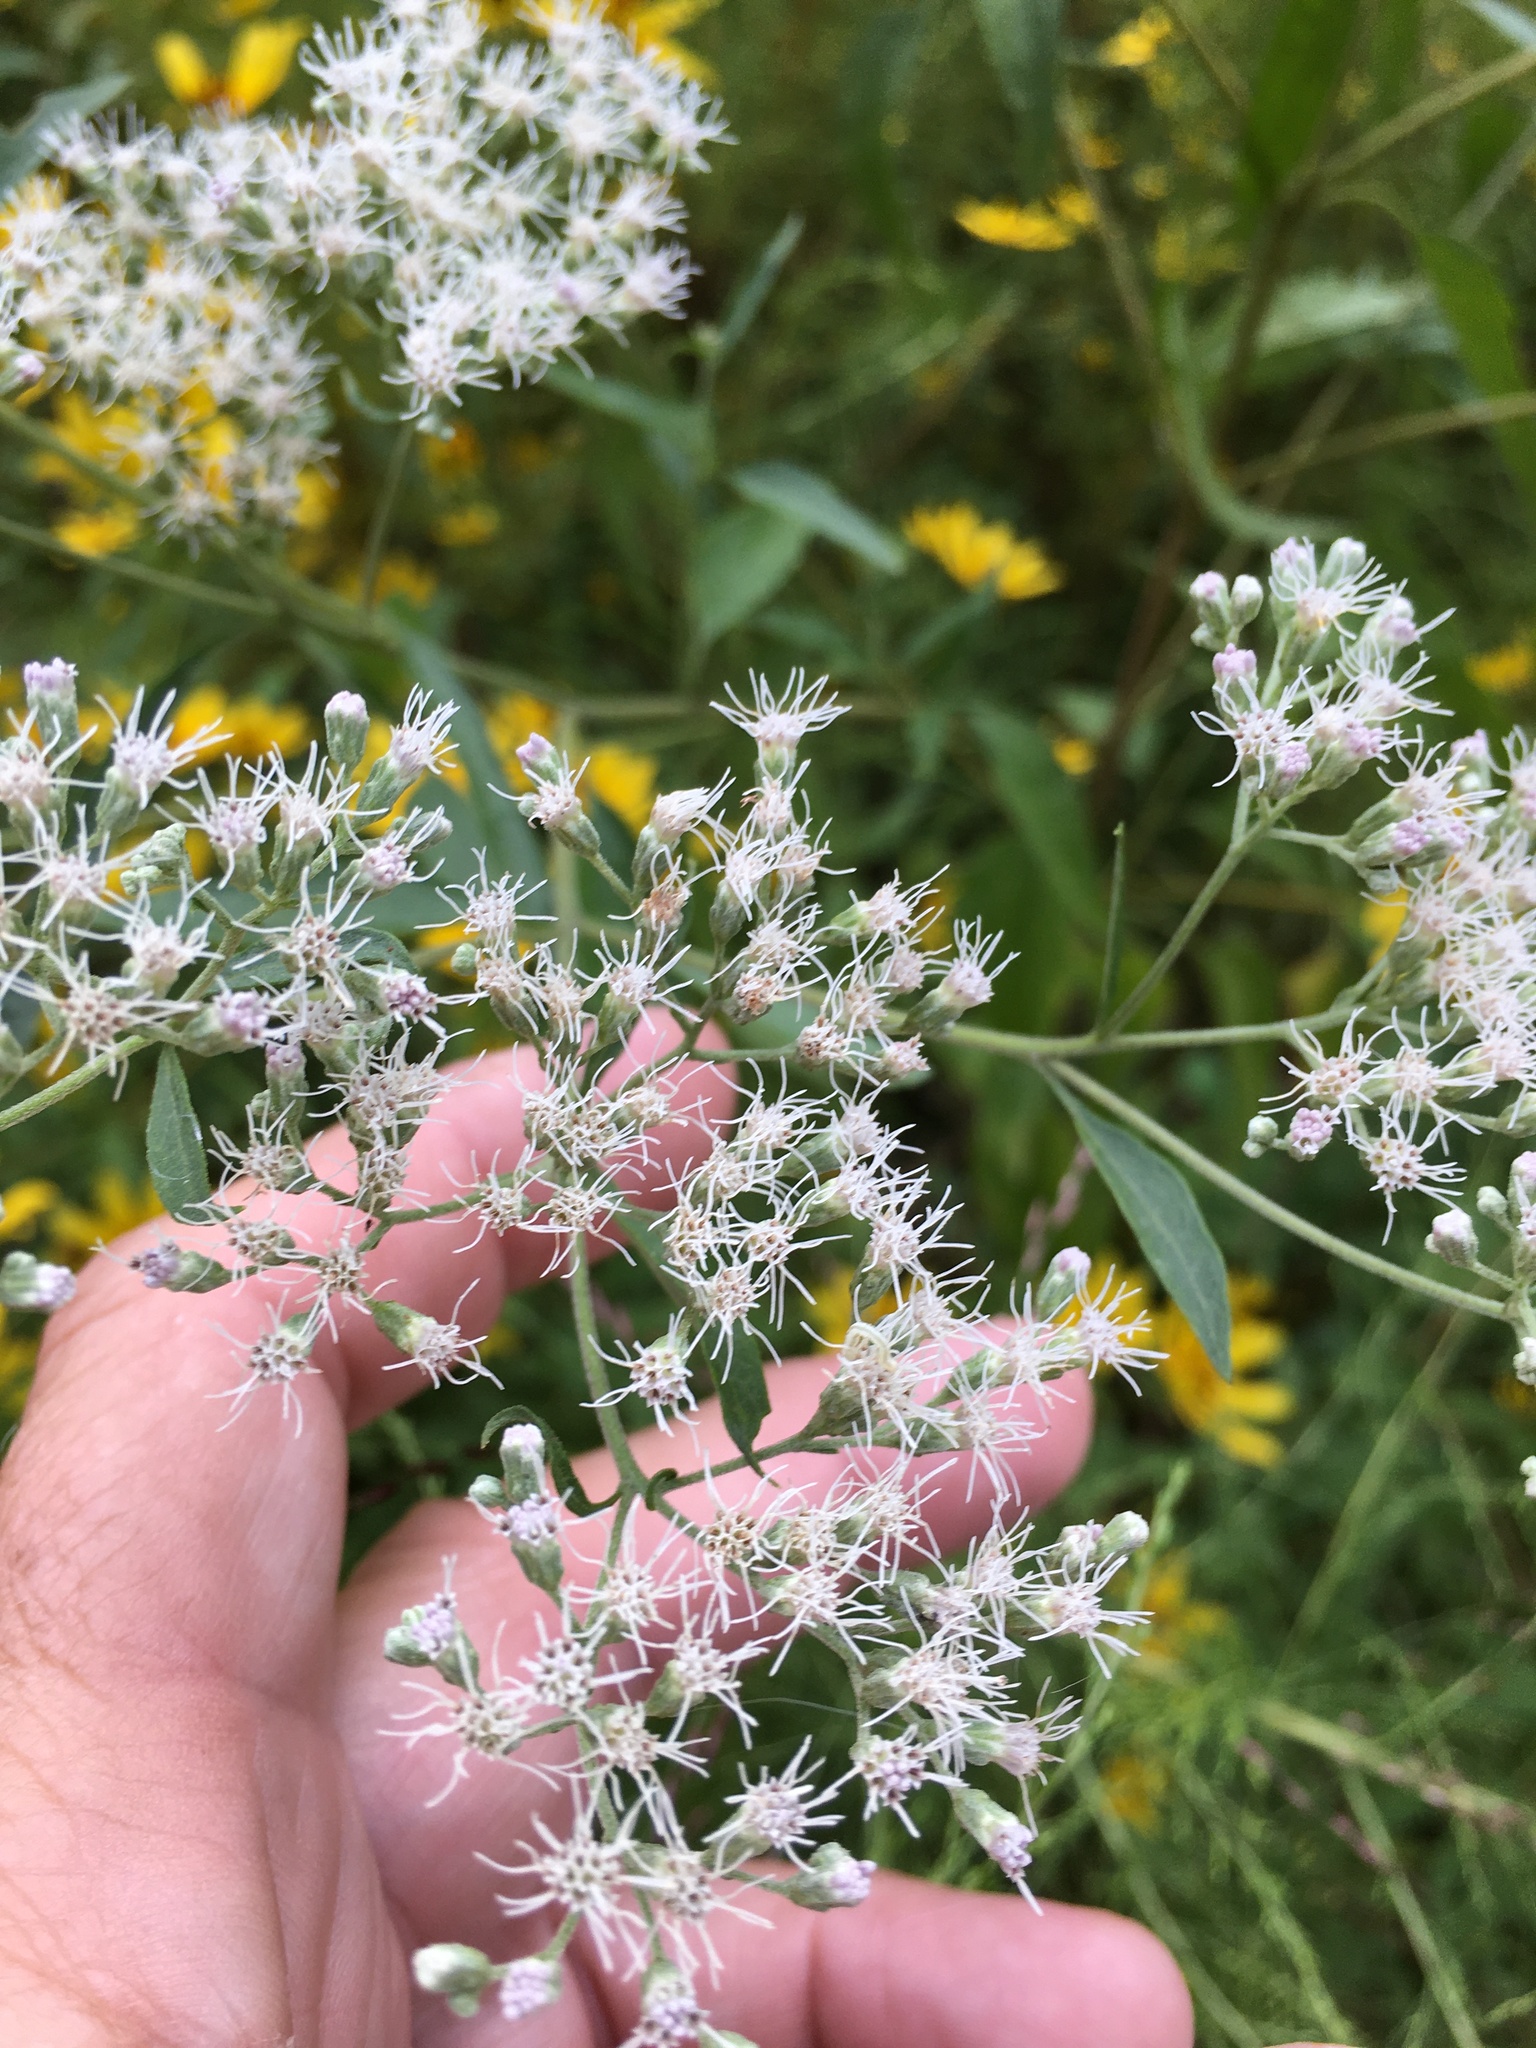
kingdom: Plantae
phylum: Tracheophyta
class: Magnoliopsida
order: Asterales
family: Asteraceae
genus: Eupatorium
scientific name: Eupatorium serotinum
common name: Late boneset
